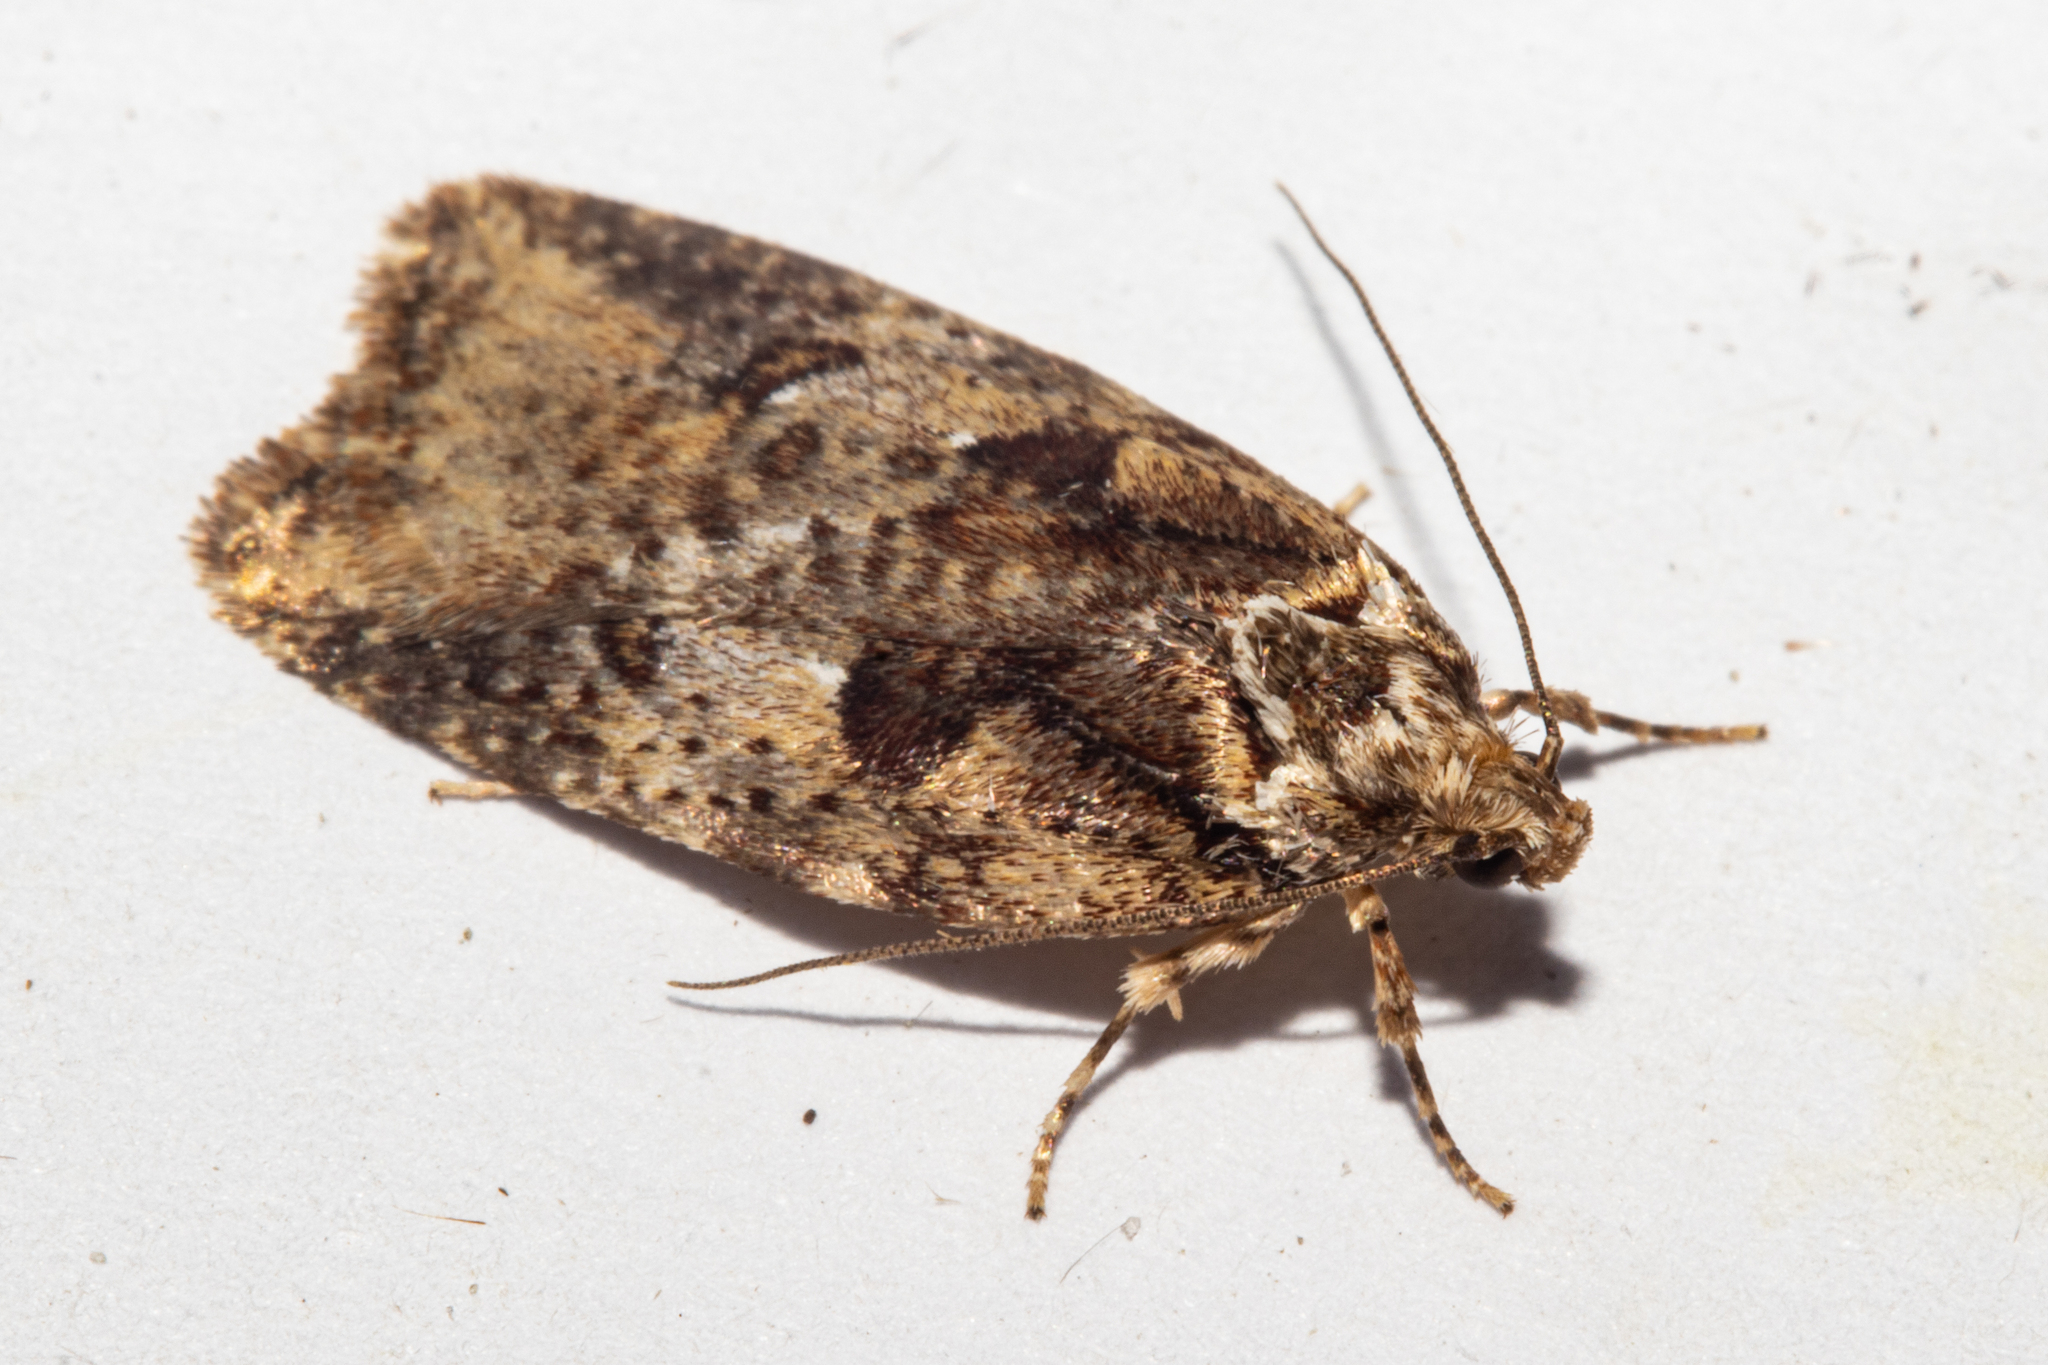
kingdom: Animalia
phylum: Arthropoda
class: Insecta
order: Lepidoptera
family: Oecophoridae
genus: Proteodes
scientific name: Proteodes profunda
